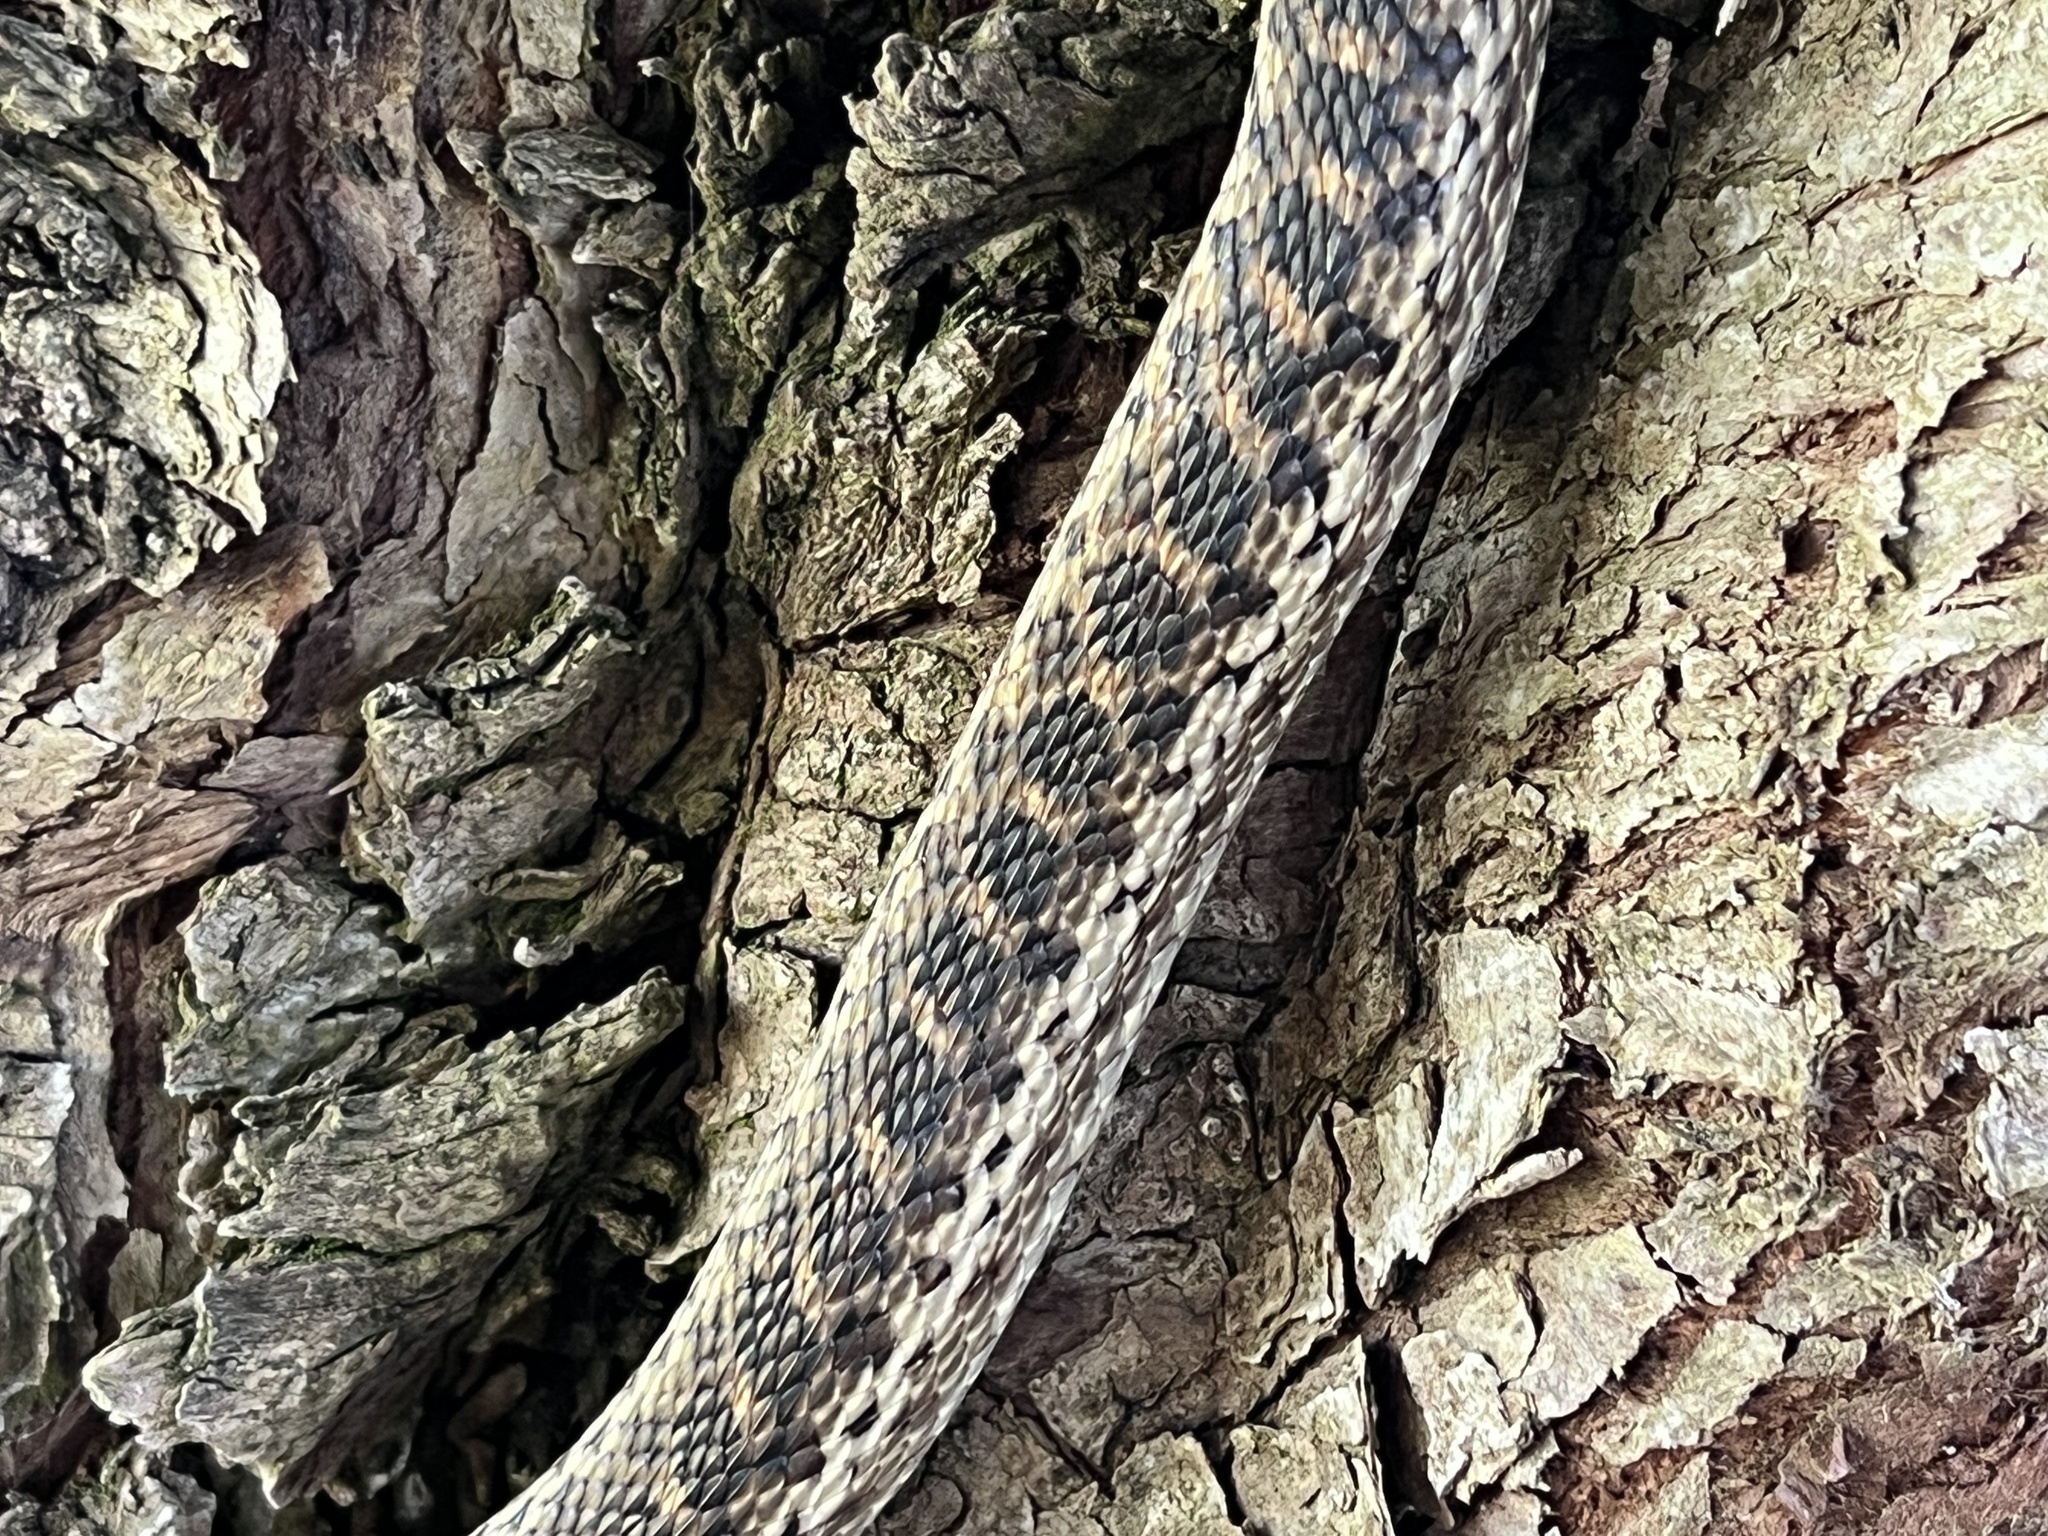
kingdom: Animalia
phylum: Chordata
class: Squamata
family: Colubridae
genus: Pituophis
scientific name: Pituophis catenifer
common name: Gopher snake
